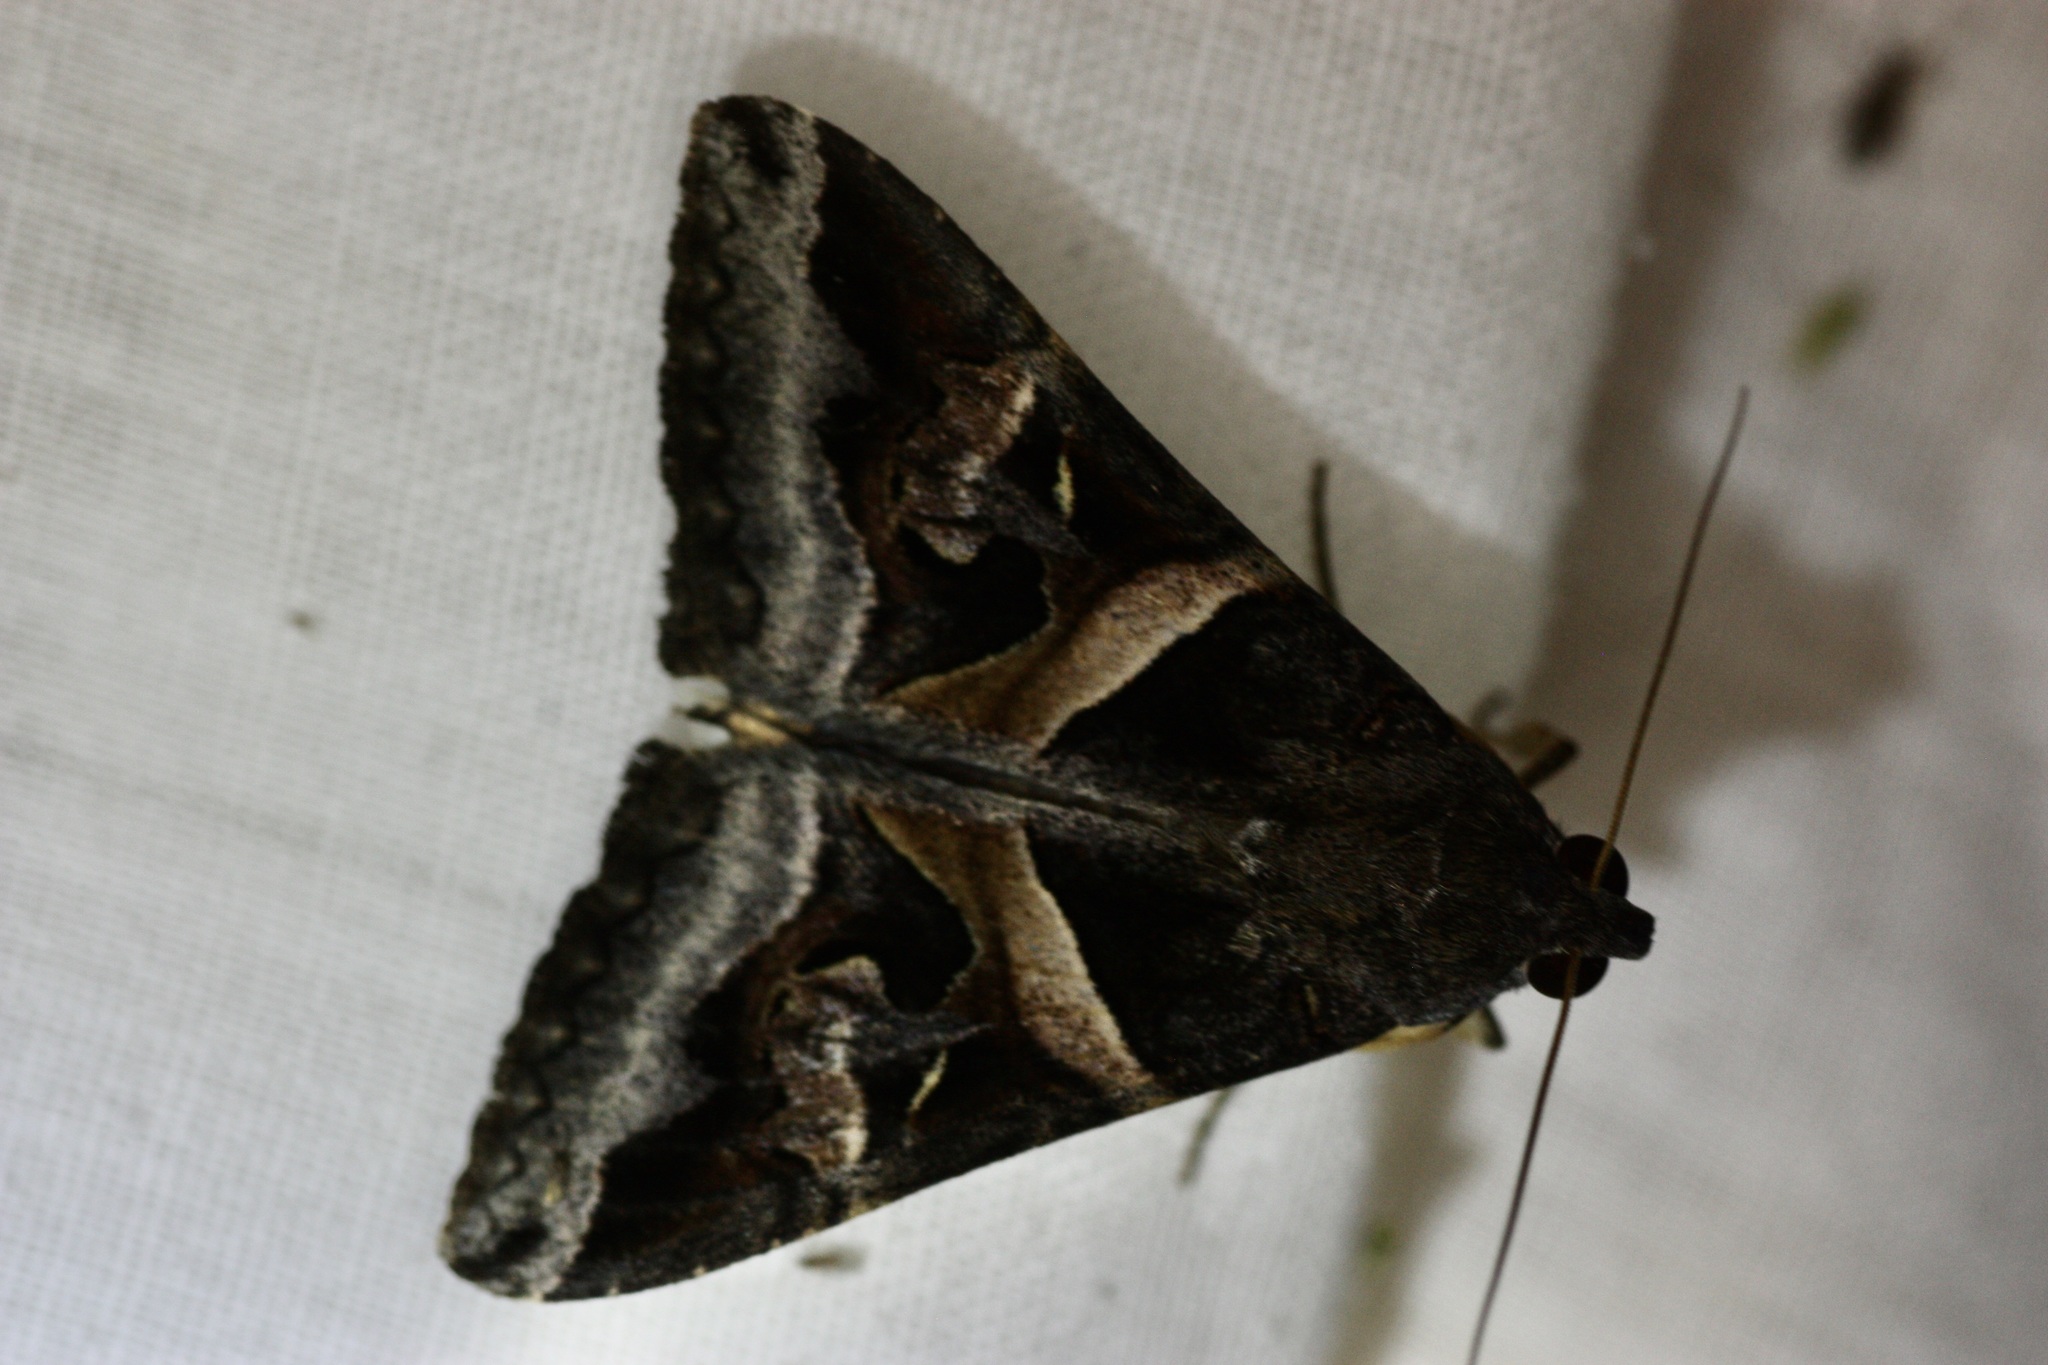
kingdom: Animalia
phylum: Arthropoda
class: Insecta
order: Lepidoptera
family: Erebidae
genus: Melipotis
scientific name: Melipotis indomita
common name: Moth
